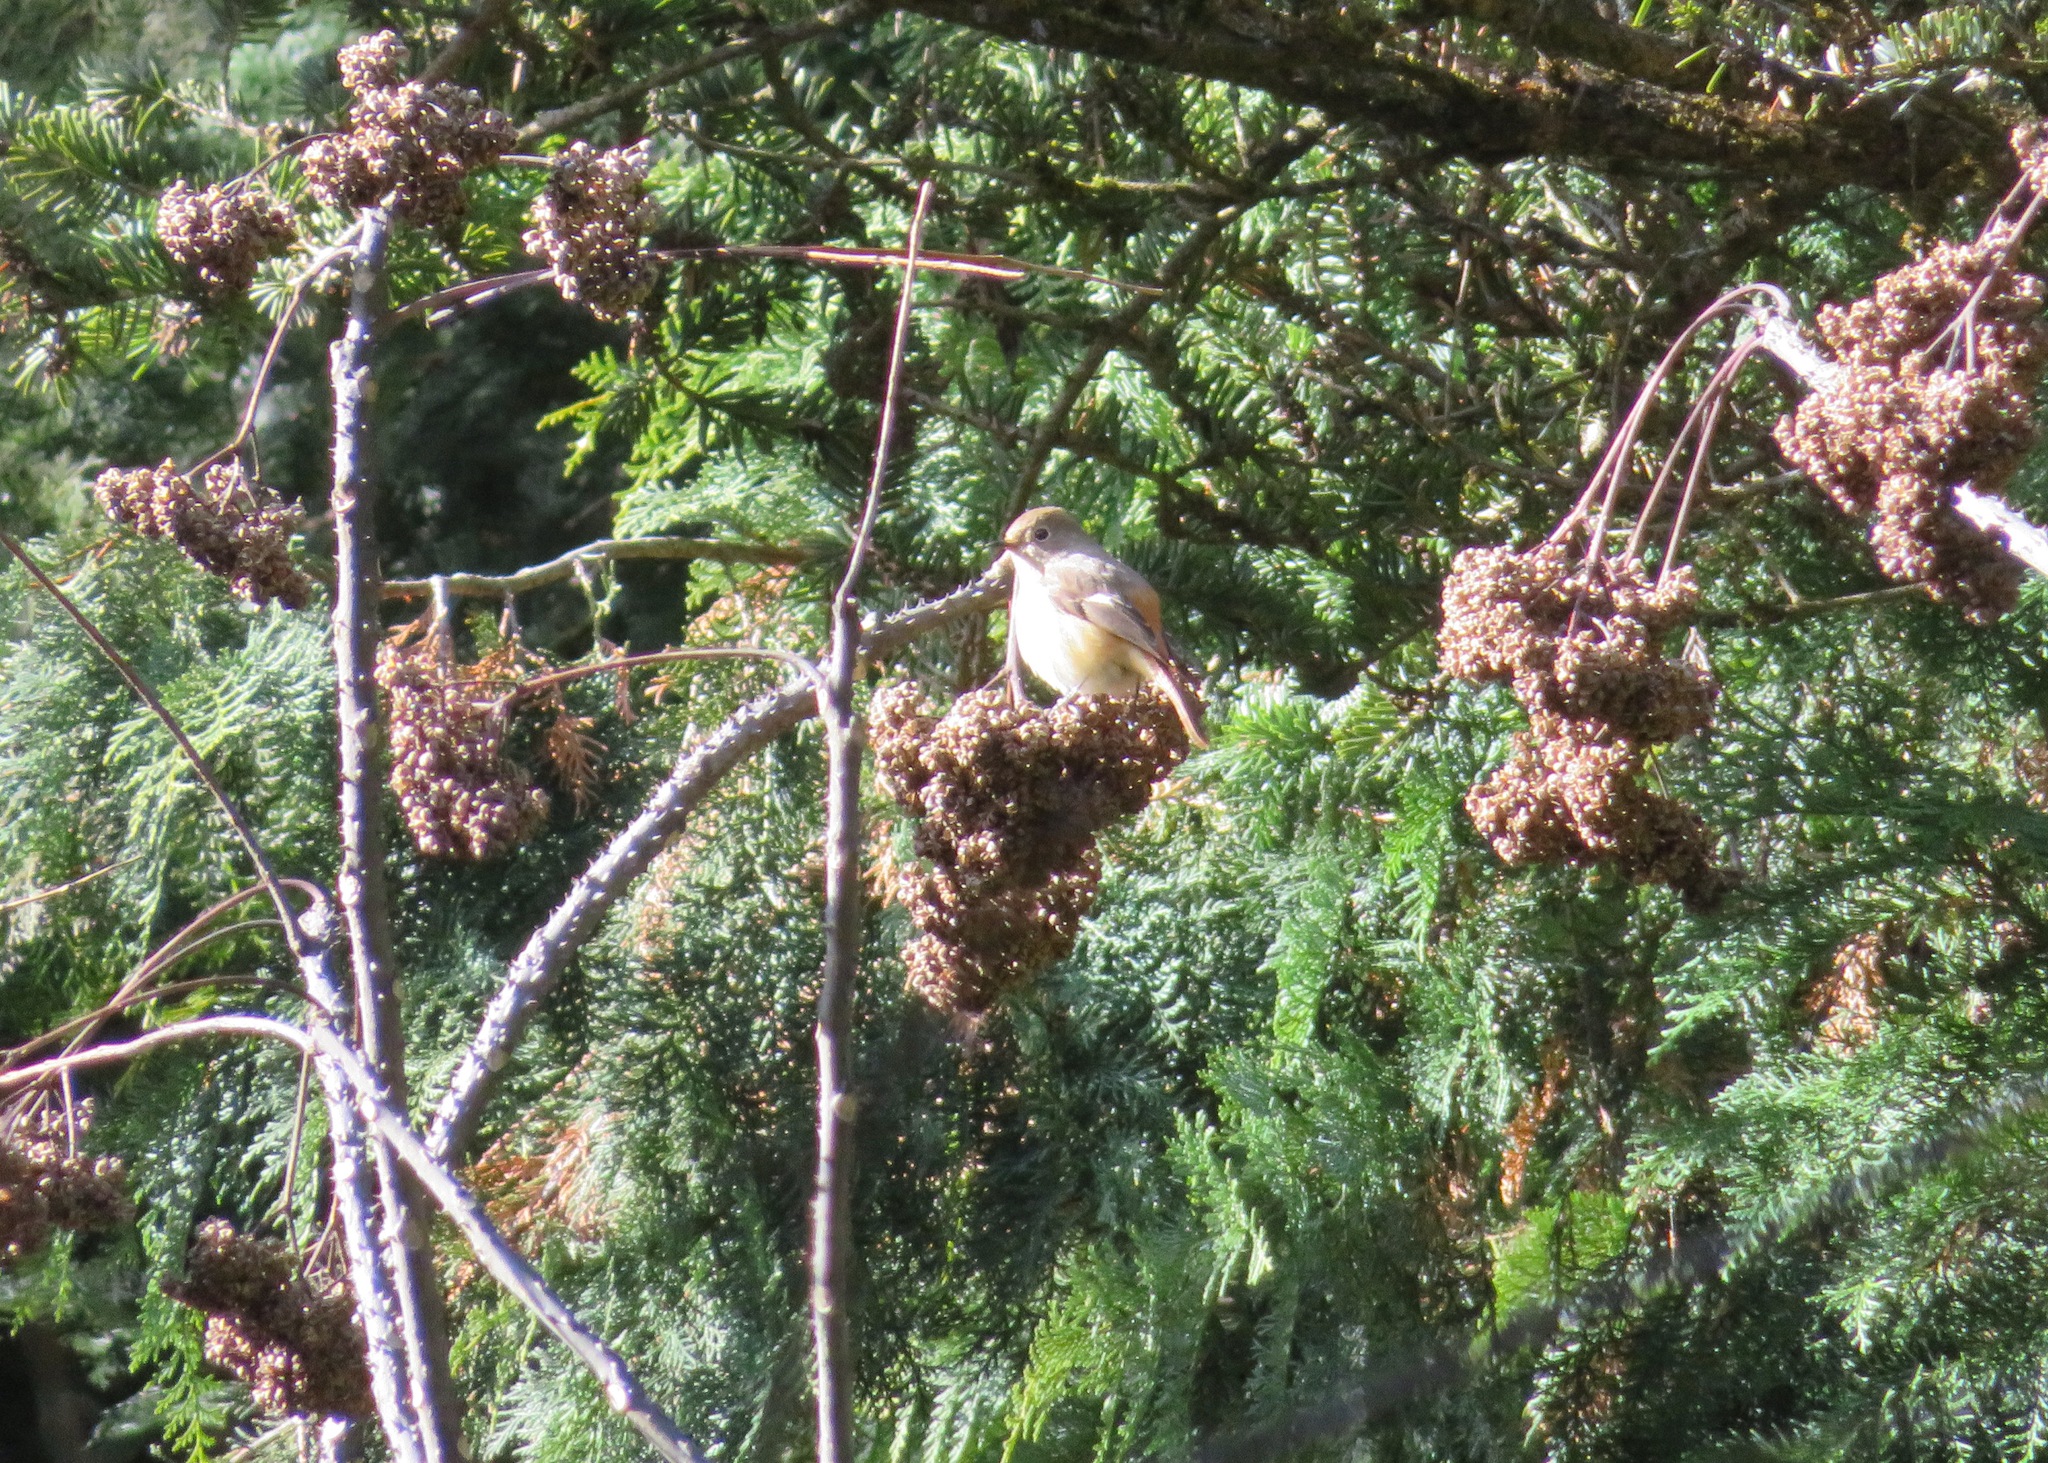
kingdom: Animalia
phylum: Chordata
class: Aves
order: Passeriformes
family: Muscicapidae
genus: Phoenicurus
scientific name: Phoenicurus auroreus
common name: Daurian redstart
